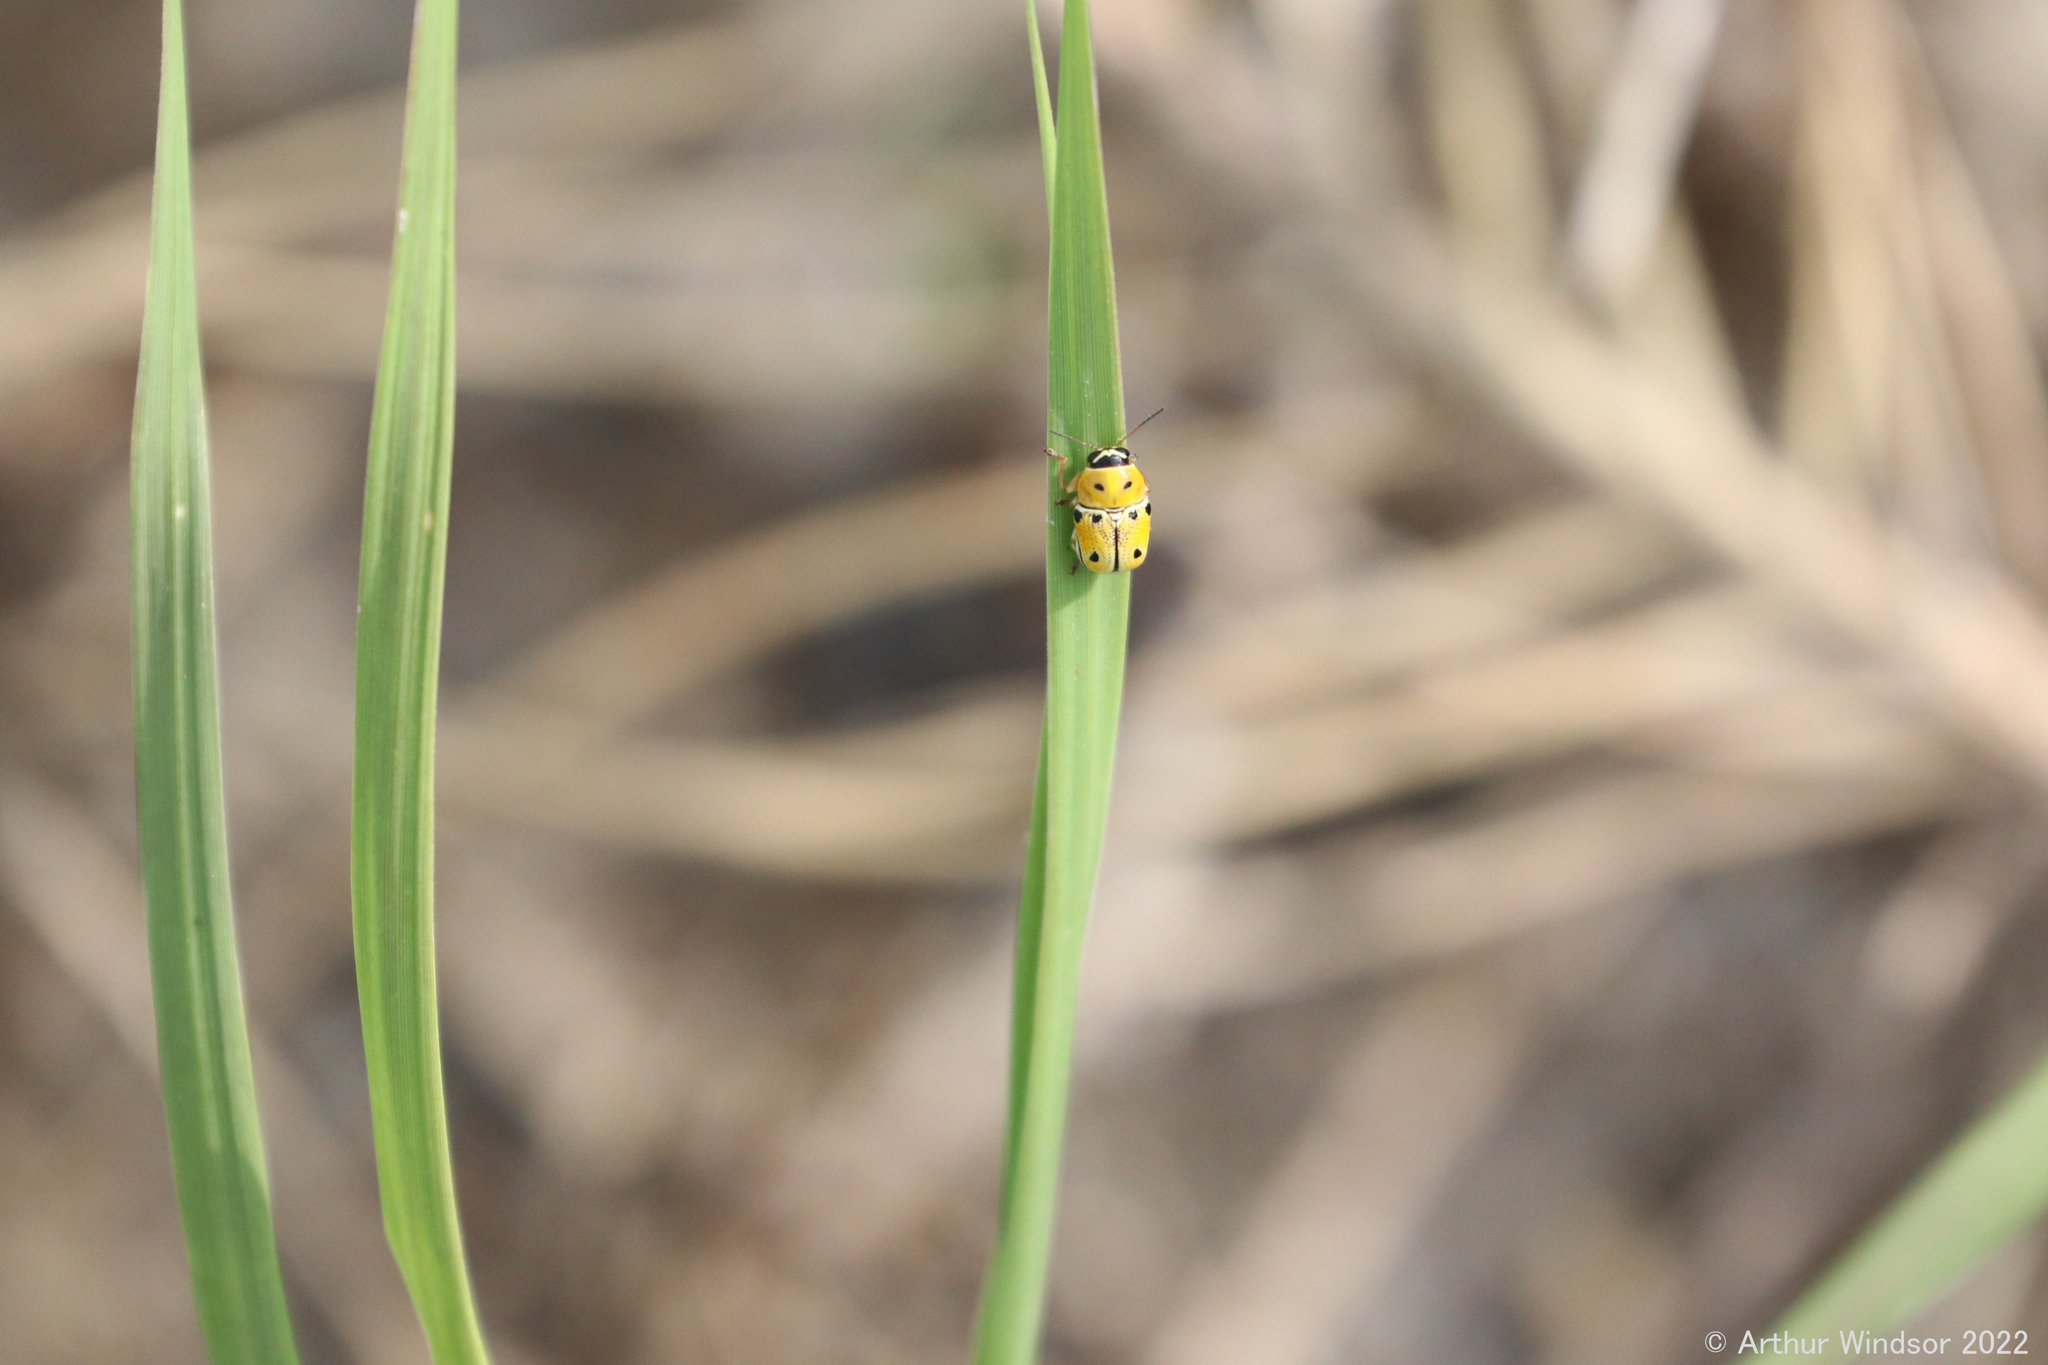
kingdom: Animalia
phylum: Arthropoda
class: Insecta
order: Coleoptera
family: Chrysomelidae
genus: Griburius
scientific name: Griburius larvatus
